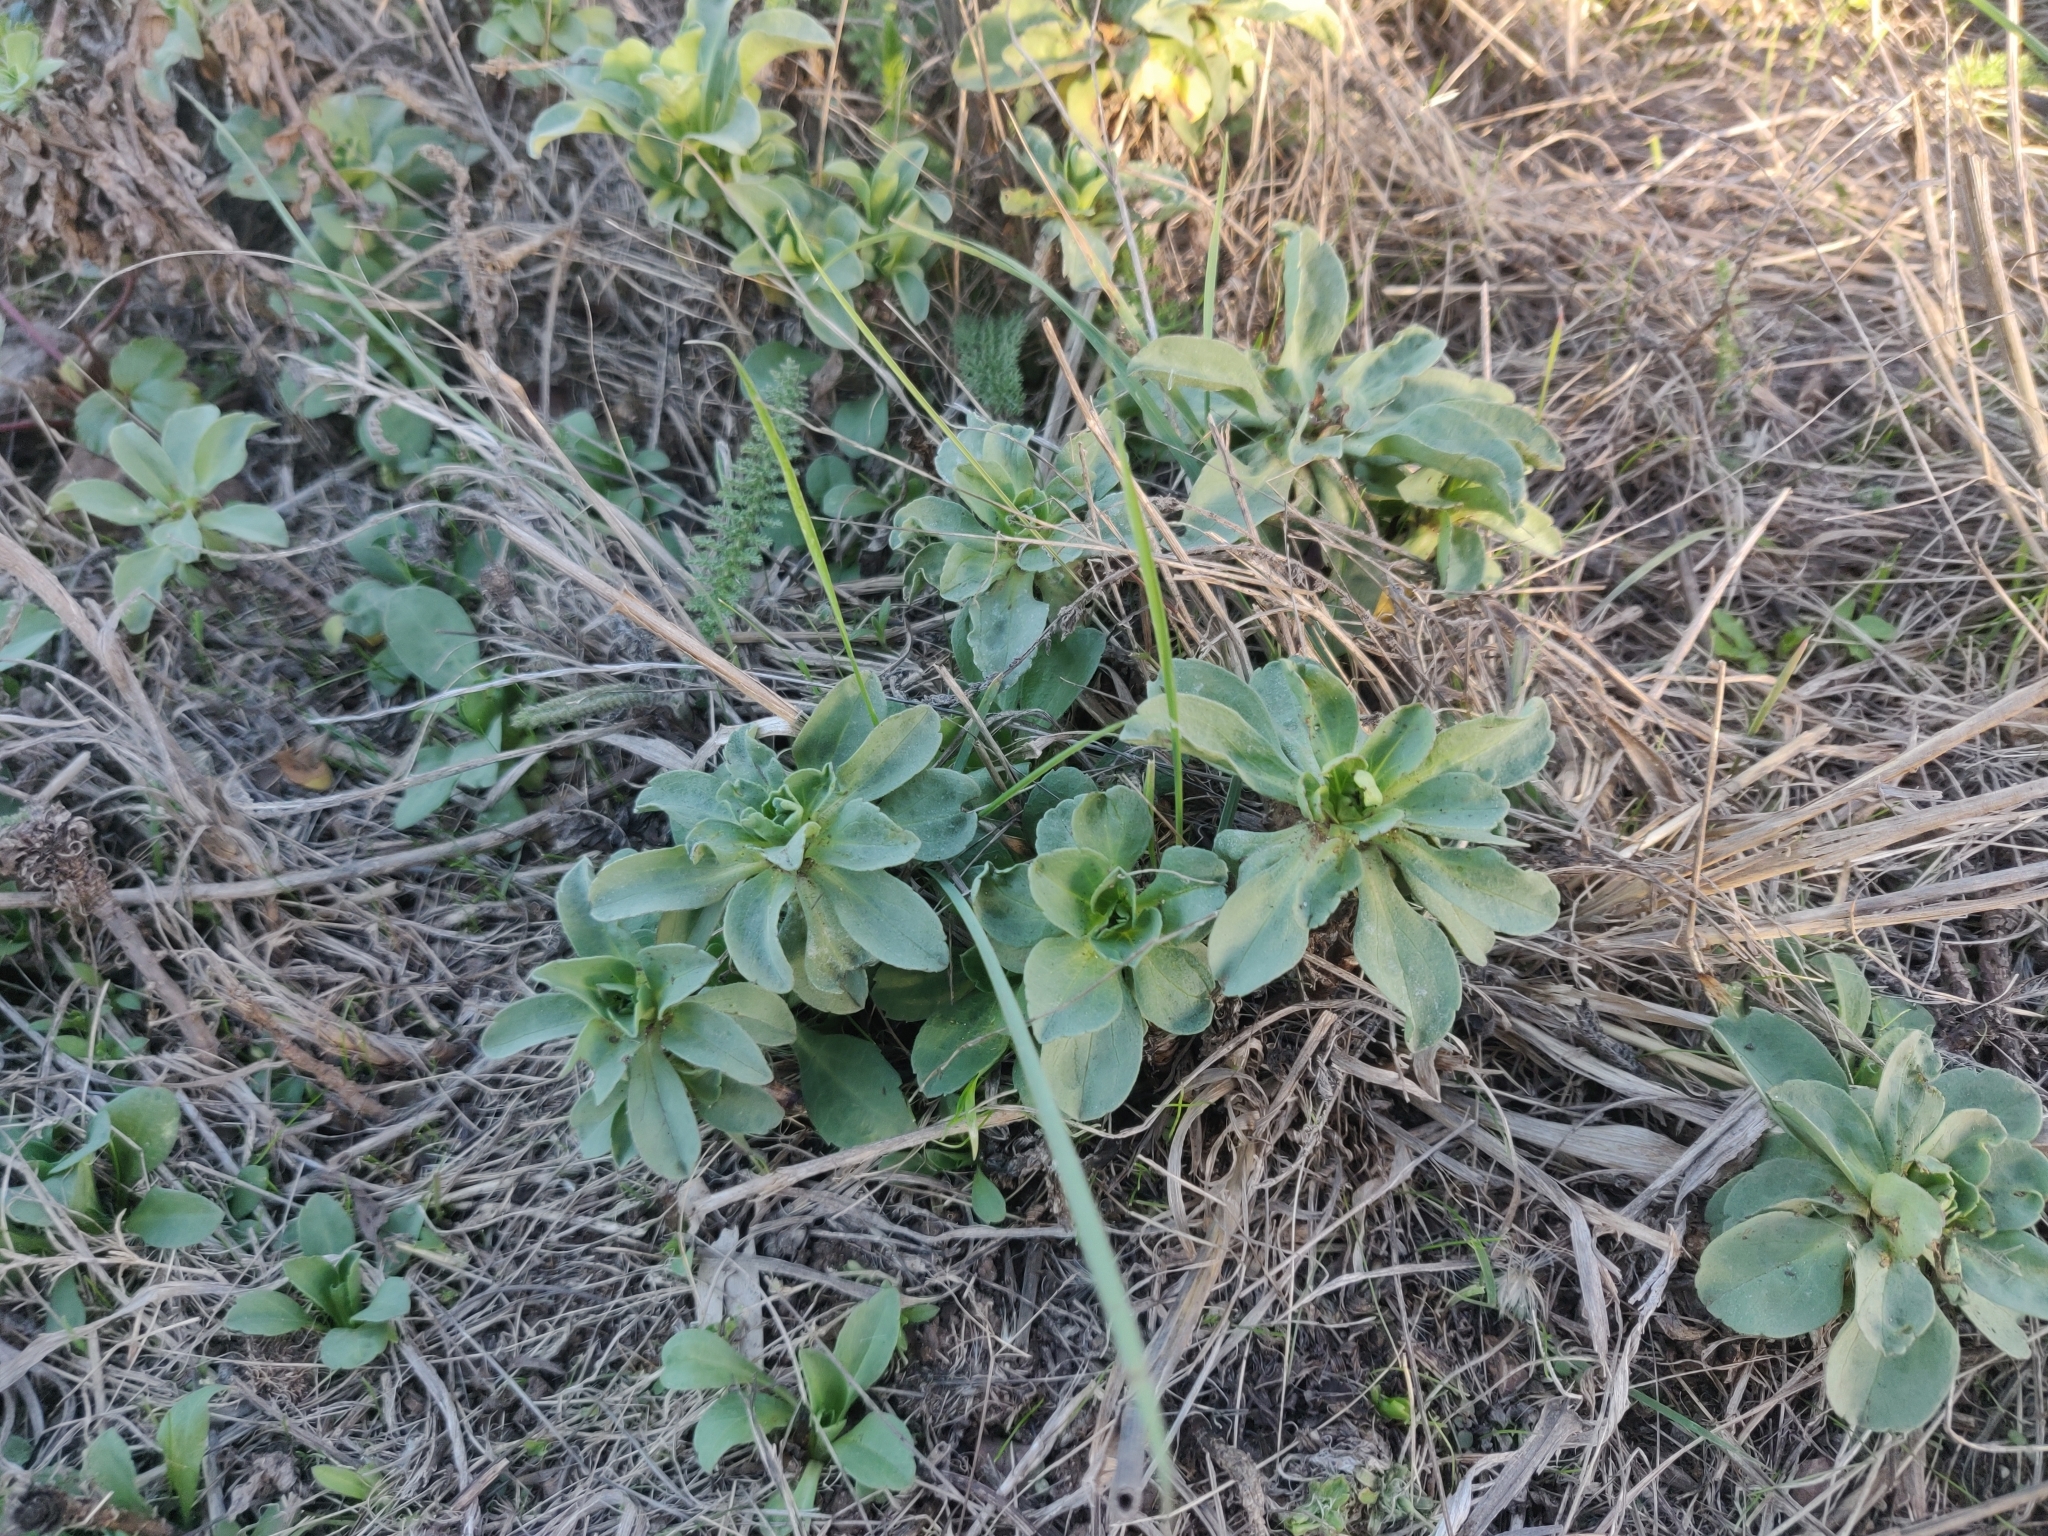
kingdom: Plantae
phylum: Tracheophyta
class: Magnoliopsida
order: Asterales
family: Asteraceae
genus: Erigeron
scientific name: Erigeron glaucus
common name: Seaside daisy
